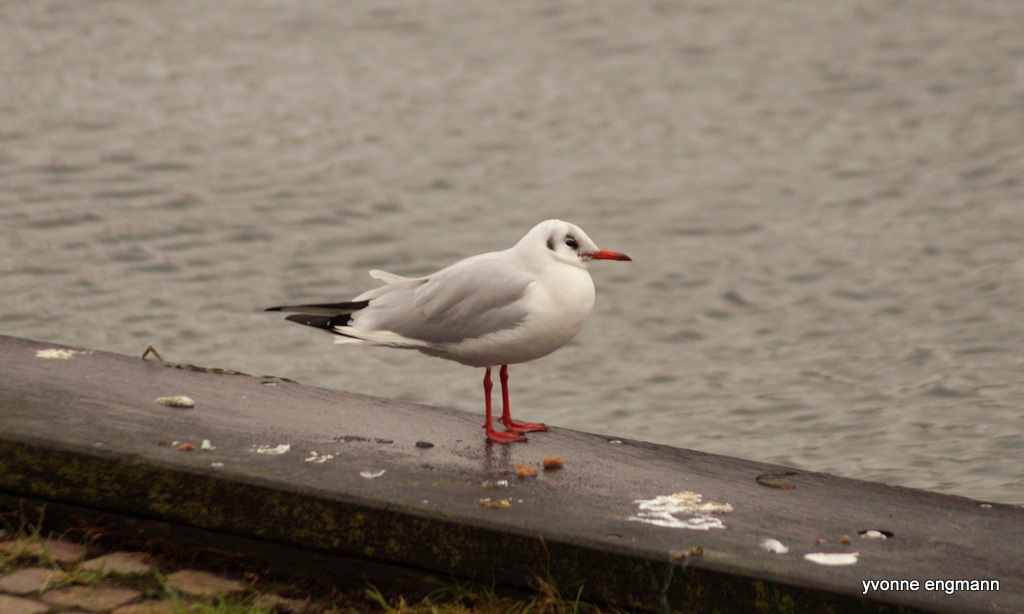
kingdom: Animalia
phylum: Chordata
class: Aves
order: Charadriiformes
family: Laridae
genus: Chroicocephalus
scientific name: Chroicocephalus ridibundus
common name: Black-headed gull
